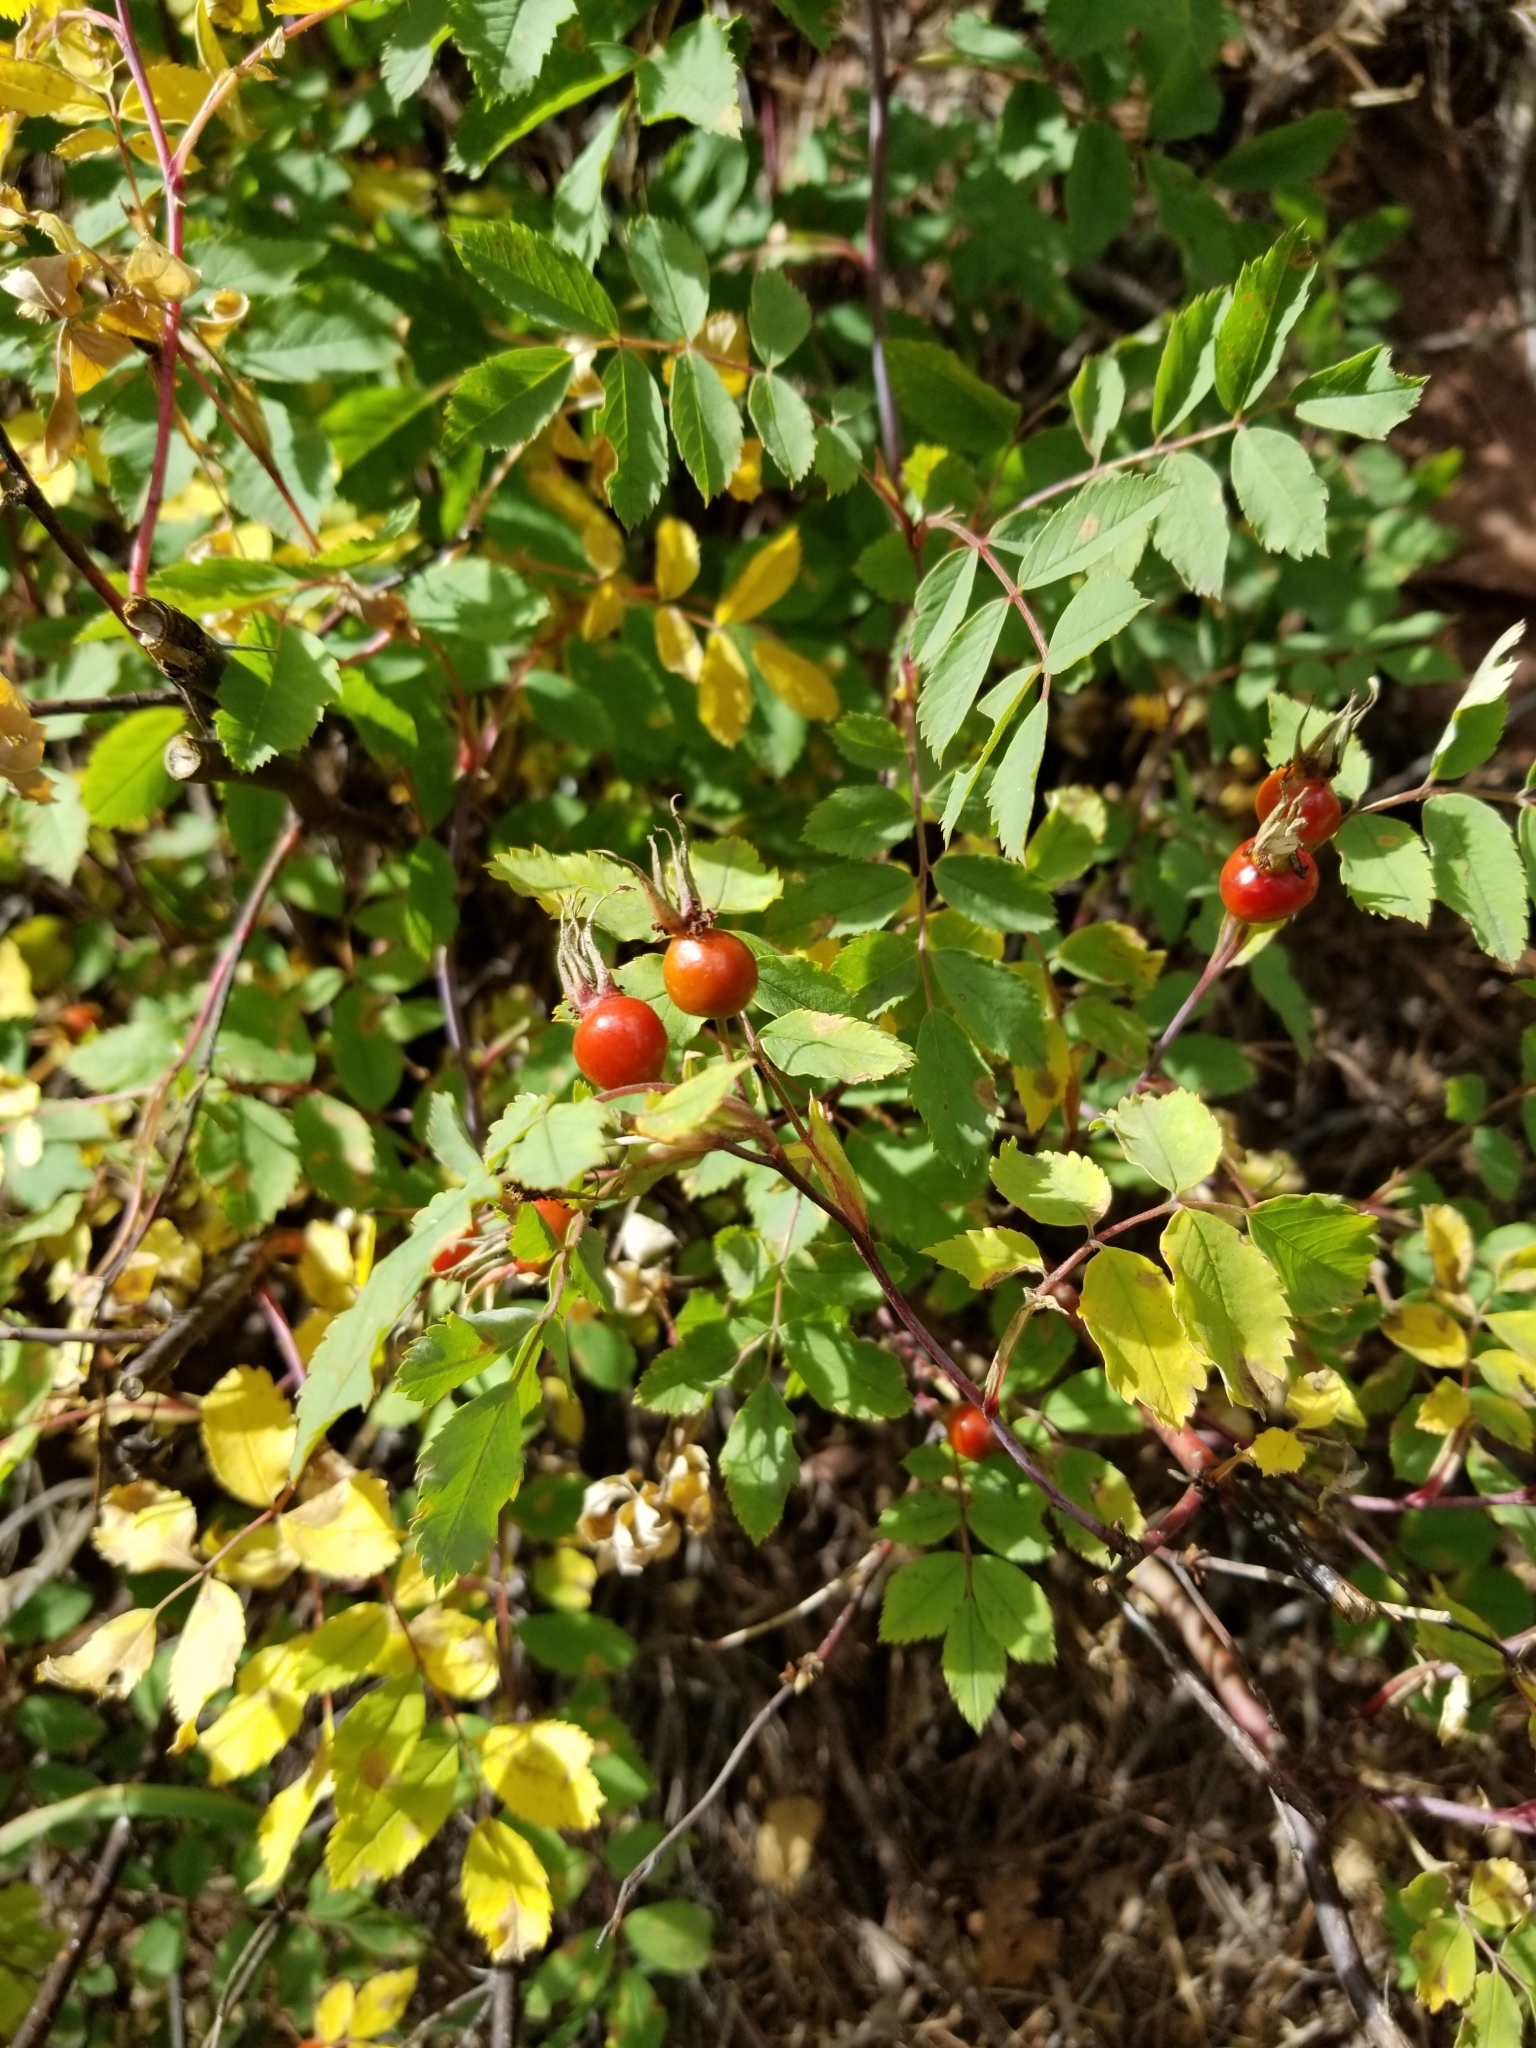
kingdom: Plantae
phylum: Tracheophyta
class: Magnoliopsida
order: Rosales
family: Rosaceae
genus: Rosa
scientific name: Rosa woodsii
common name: Woods's rose
